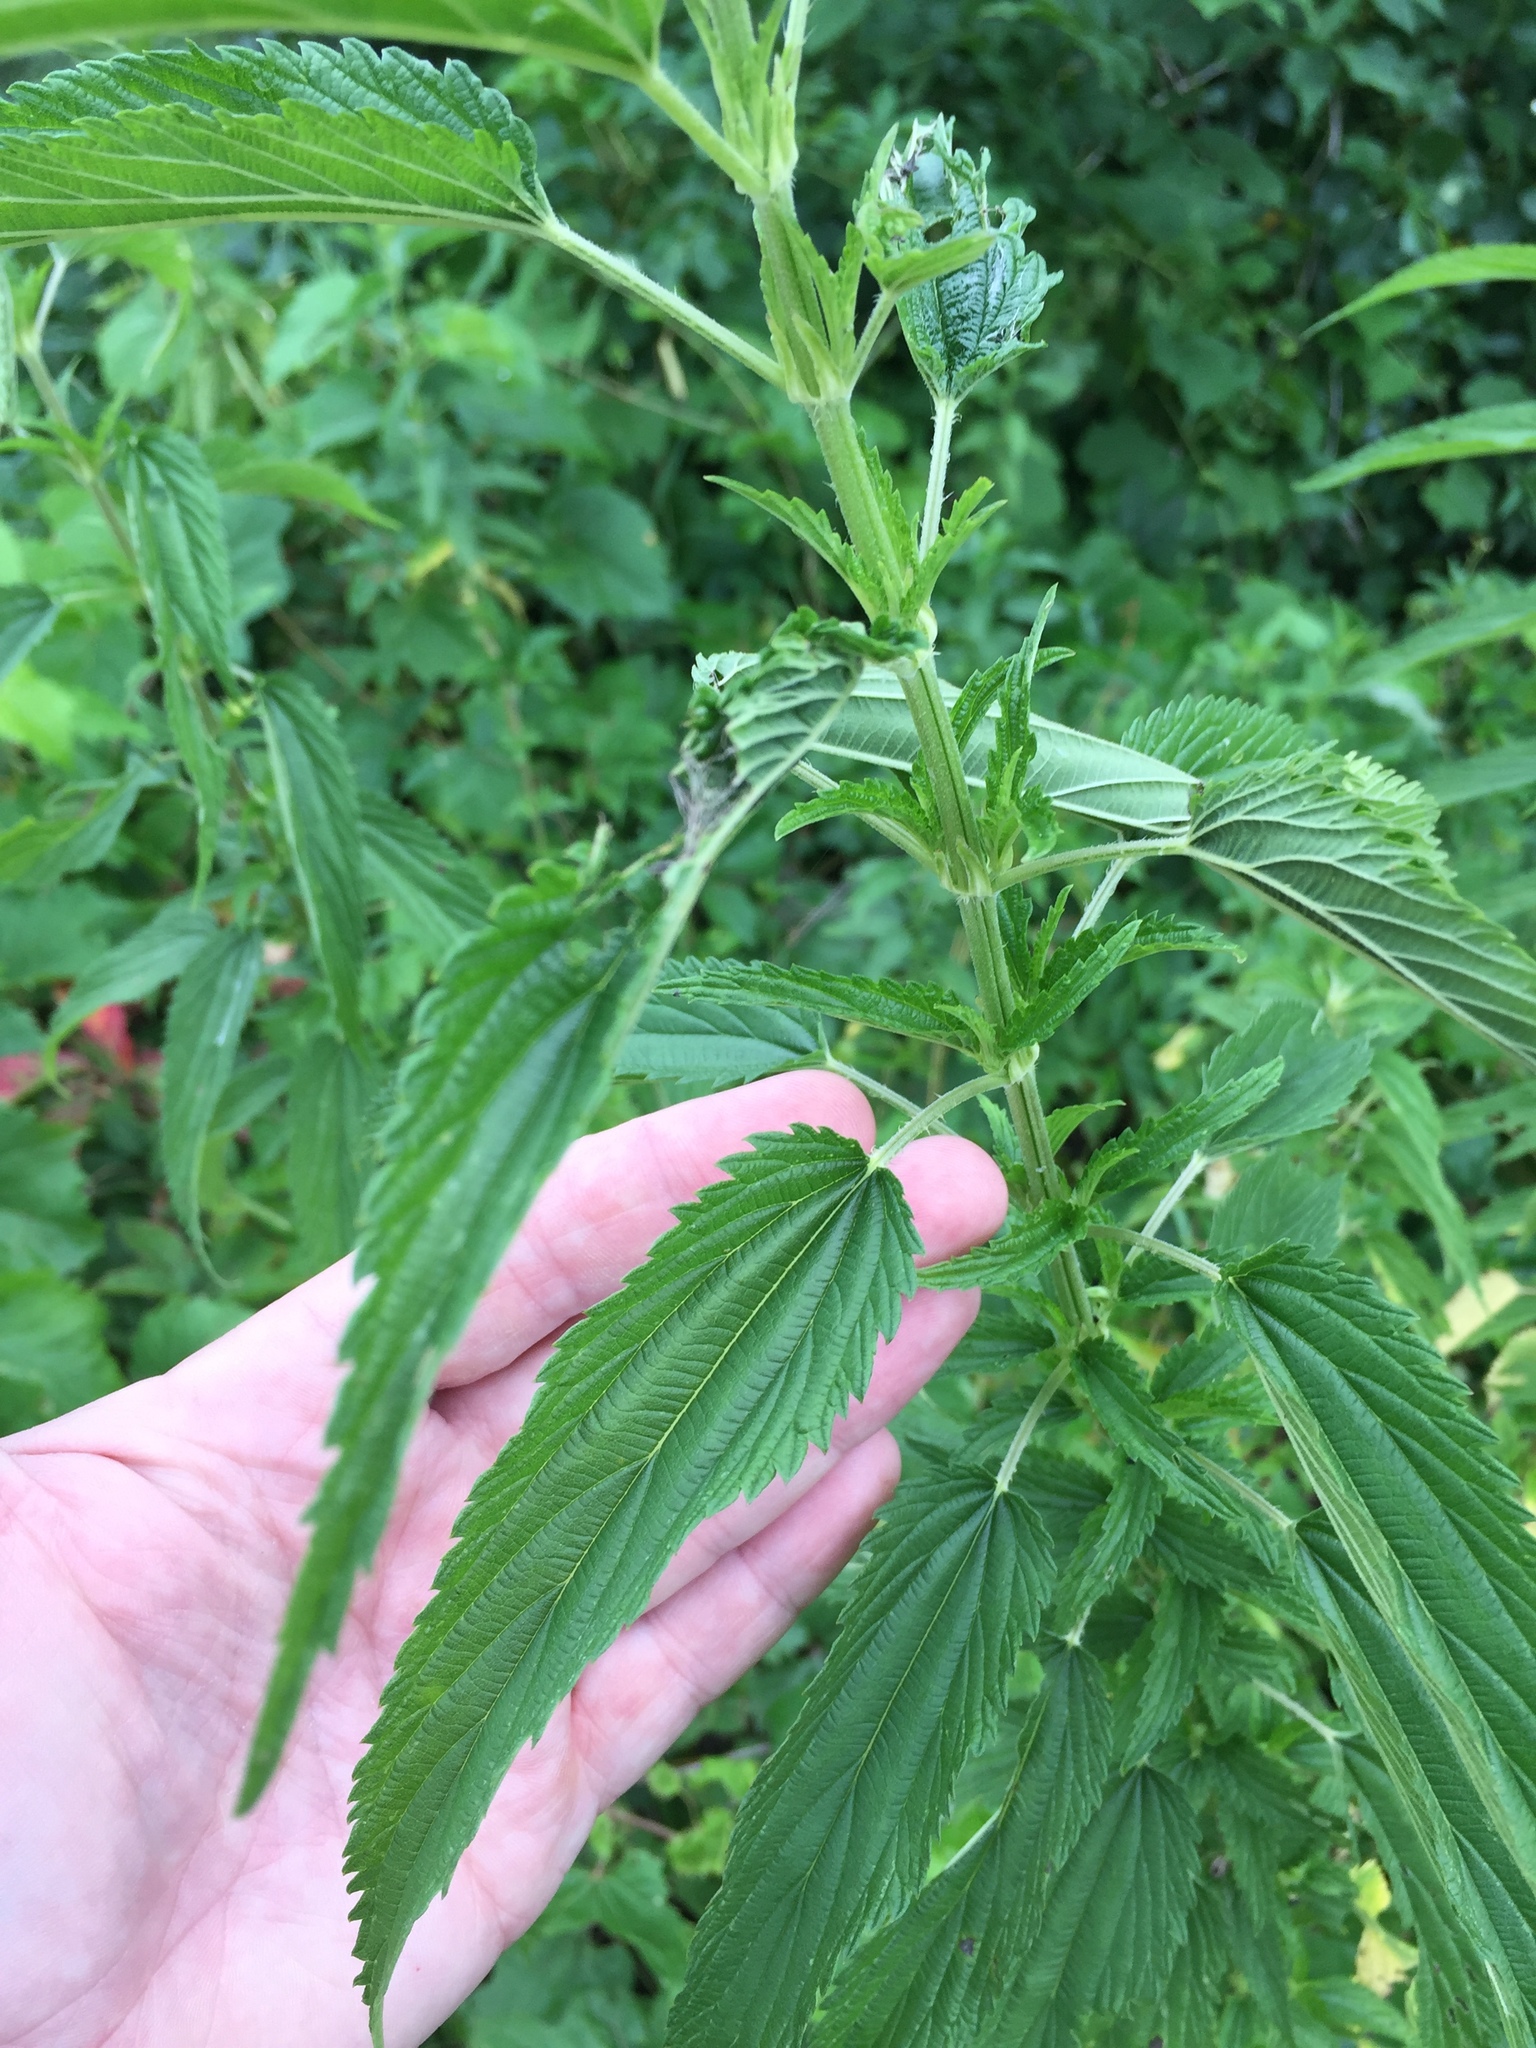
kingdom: Plantae
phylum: Tracheophyta
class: Magnoliopsida
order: Rosales
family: Urticaceae
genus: Urtica
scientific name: Urtica dioica
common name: Common nettle
